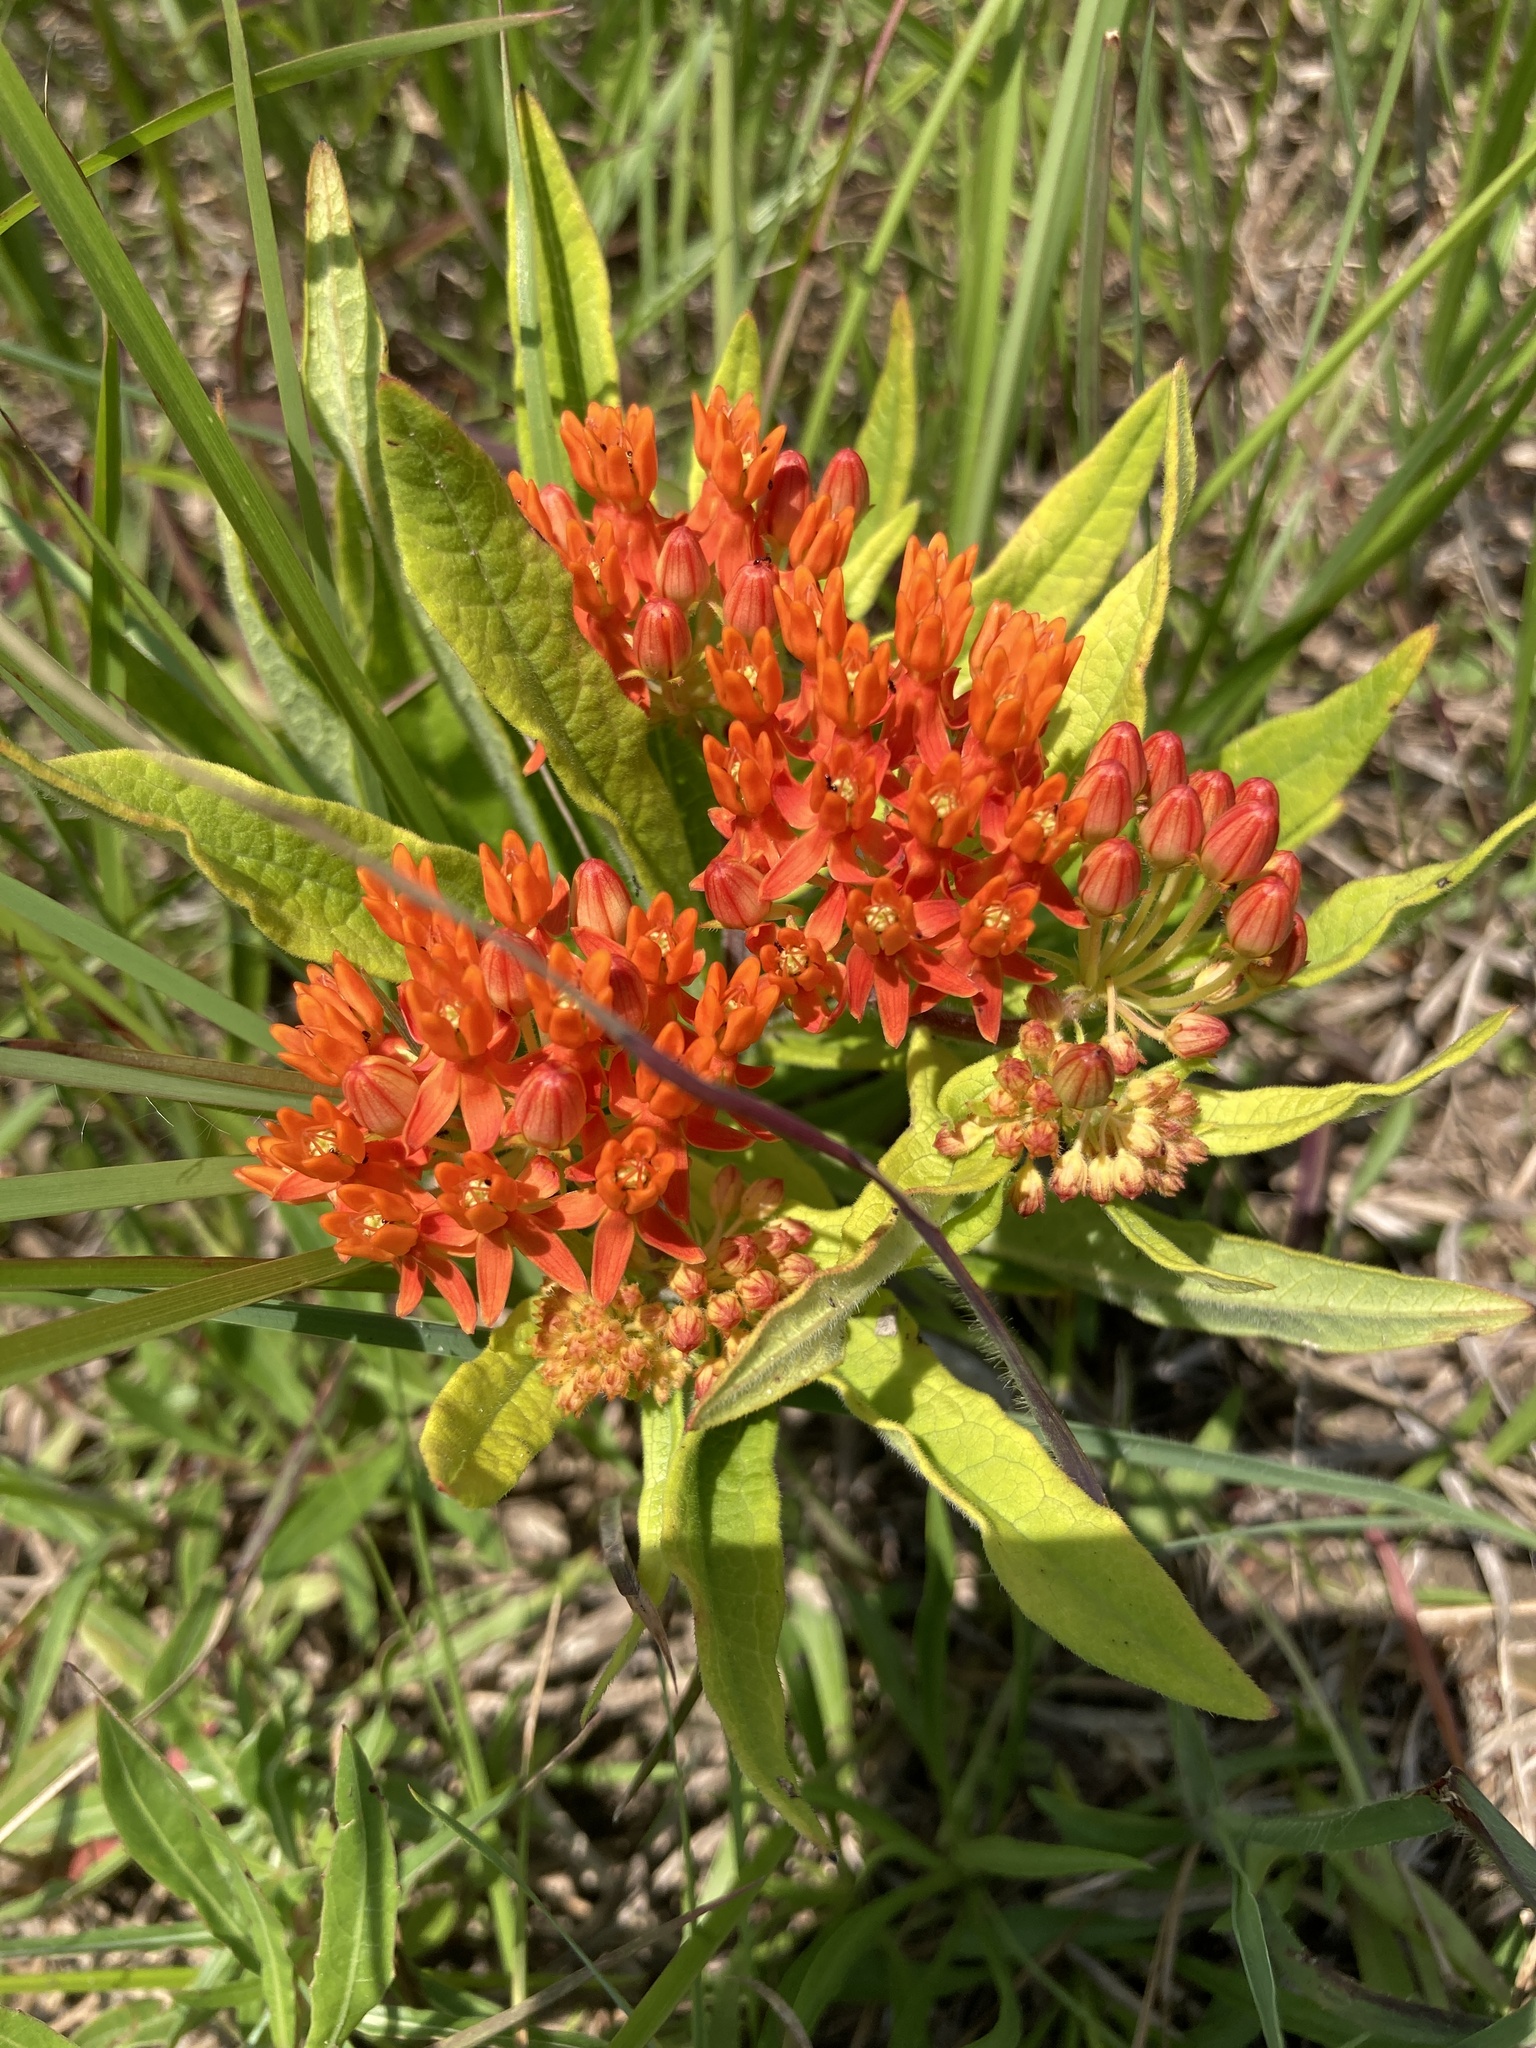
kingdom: Plantae
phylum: Tracheophyta
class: Magnoliopsida
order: Gentianales
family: Apocynaceae
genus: Asclepias
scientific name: Asclepias tuberosa
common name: Butterfly milkweed
